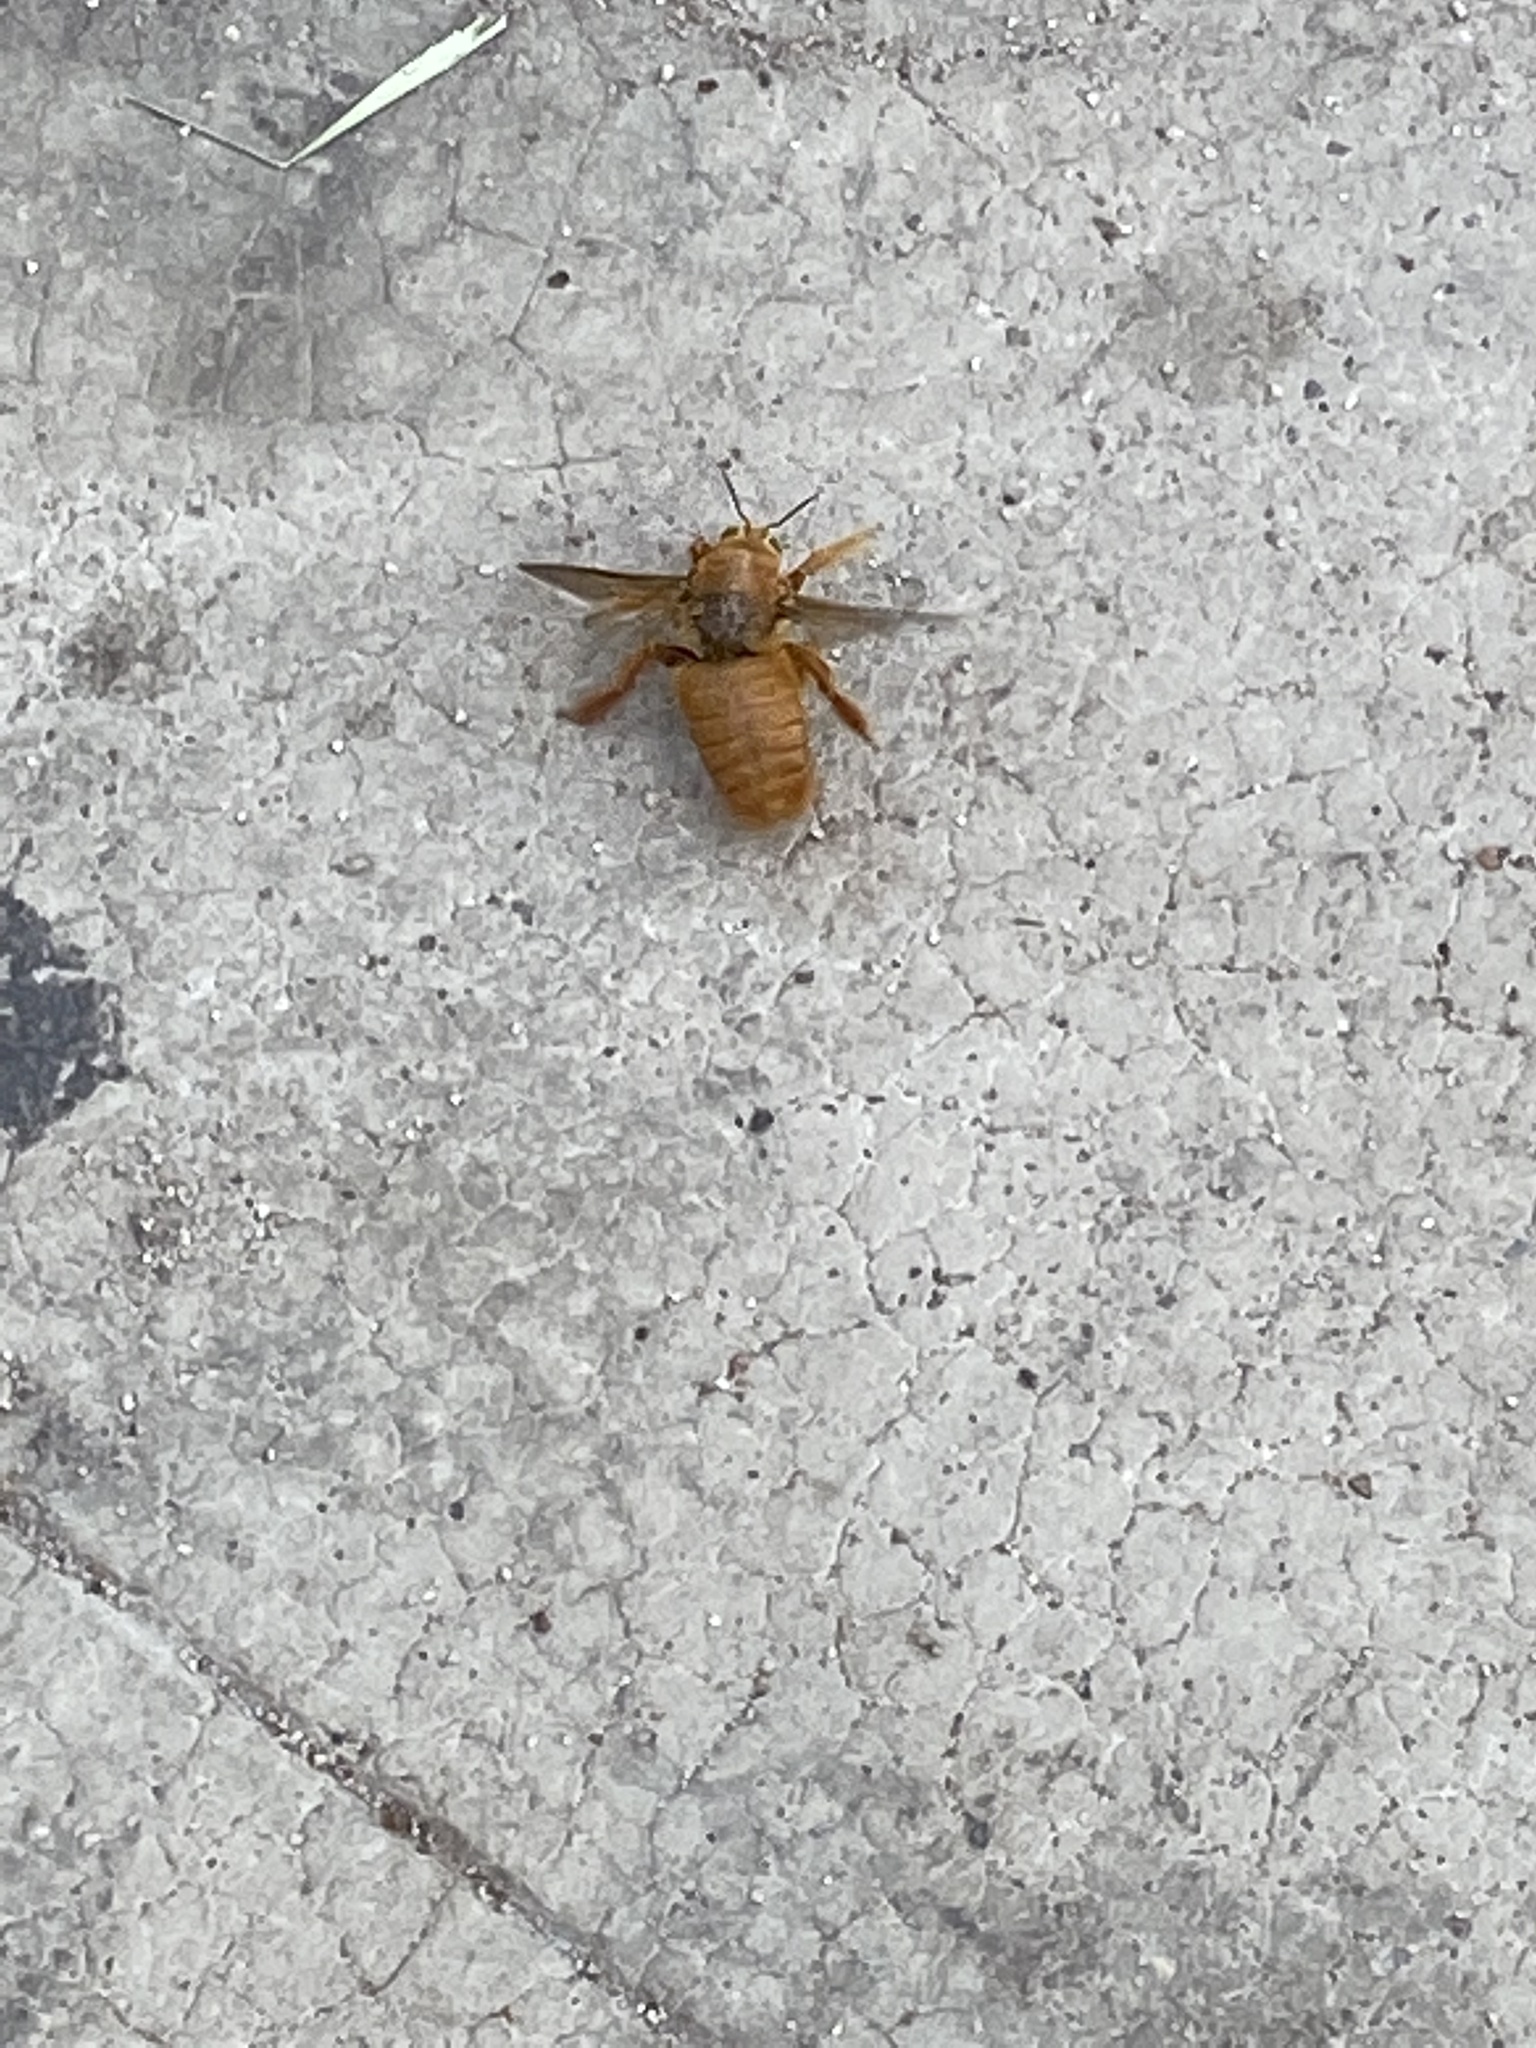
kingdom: Animalia
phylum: Arthropoda
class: Insecta
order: Hymenoptera
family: Apidae
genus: Xylocopa
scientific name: Xylocopa sonorina
